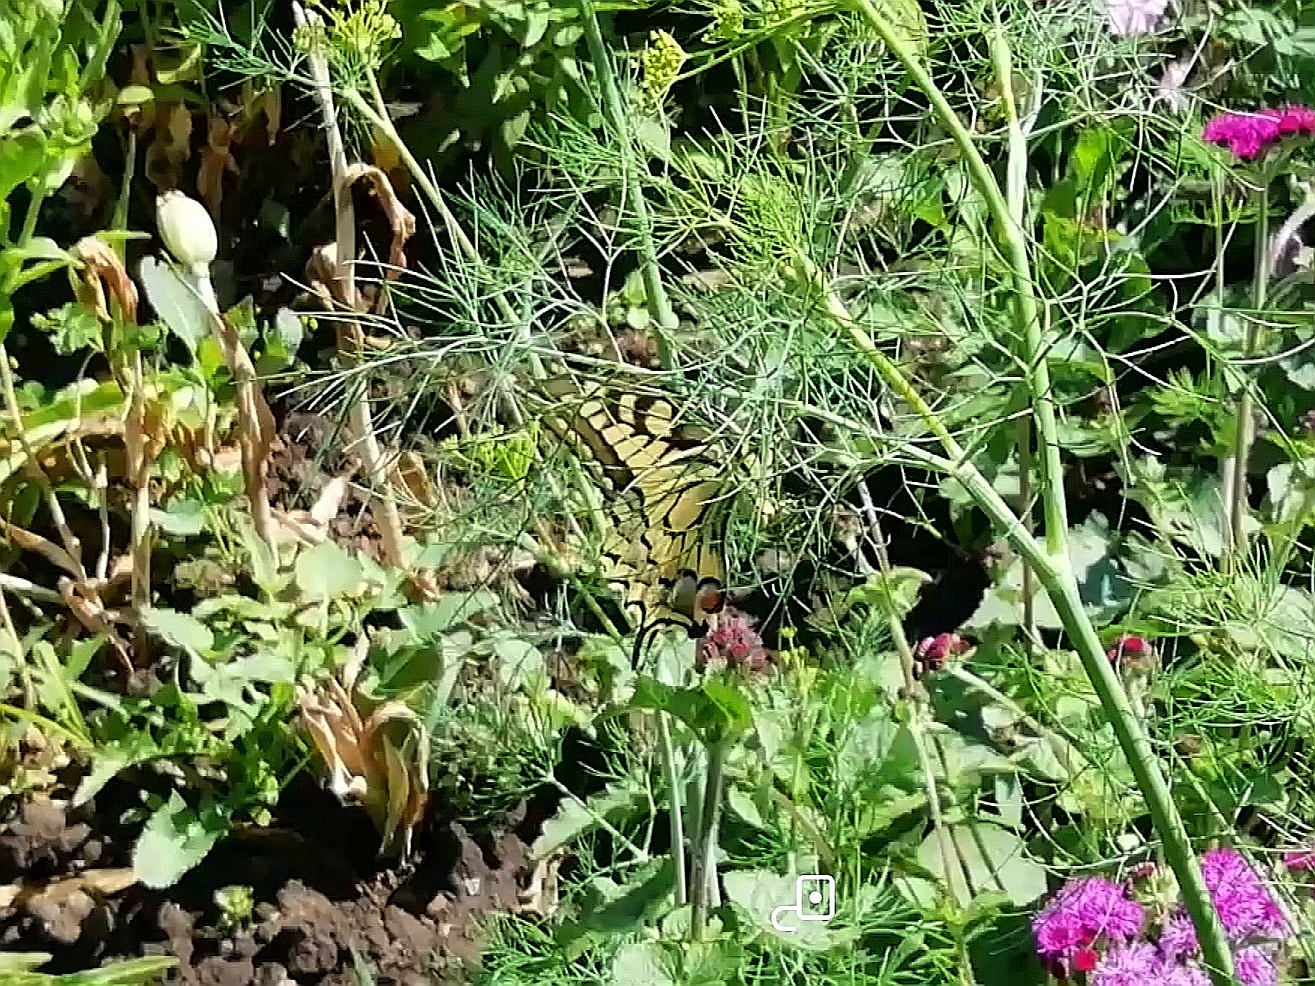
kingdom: Animalia
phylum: Arthropoda
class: Insecta
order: Lepidoptera
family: Papilionidae
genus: Papilio
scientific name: Papilio machaon
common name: Swallowtail
